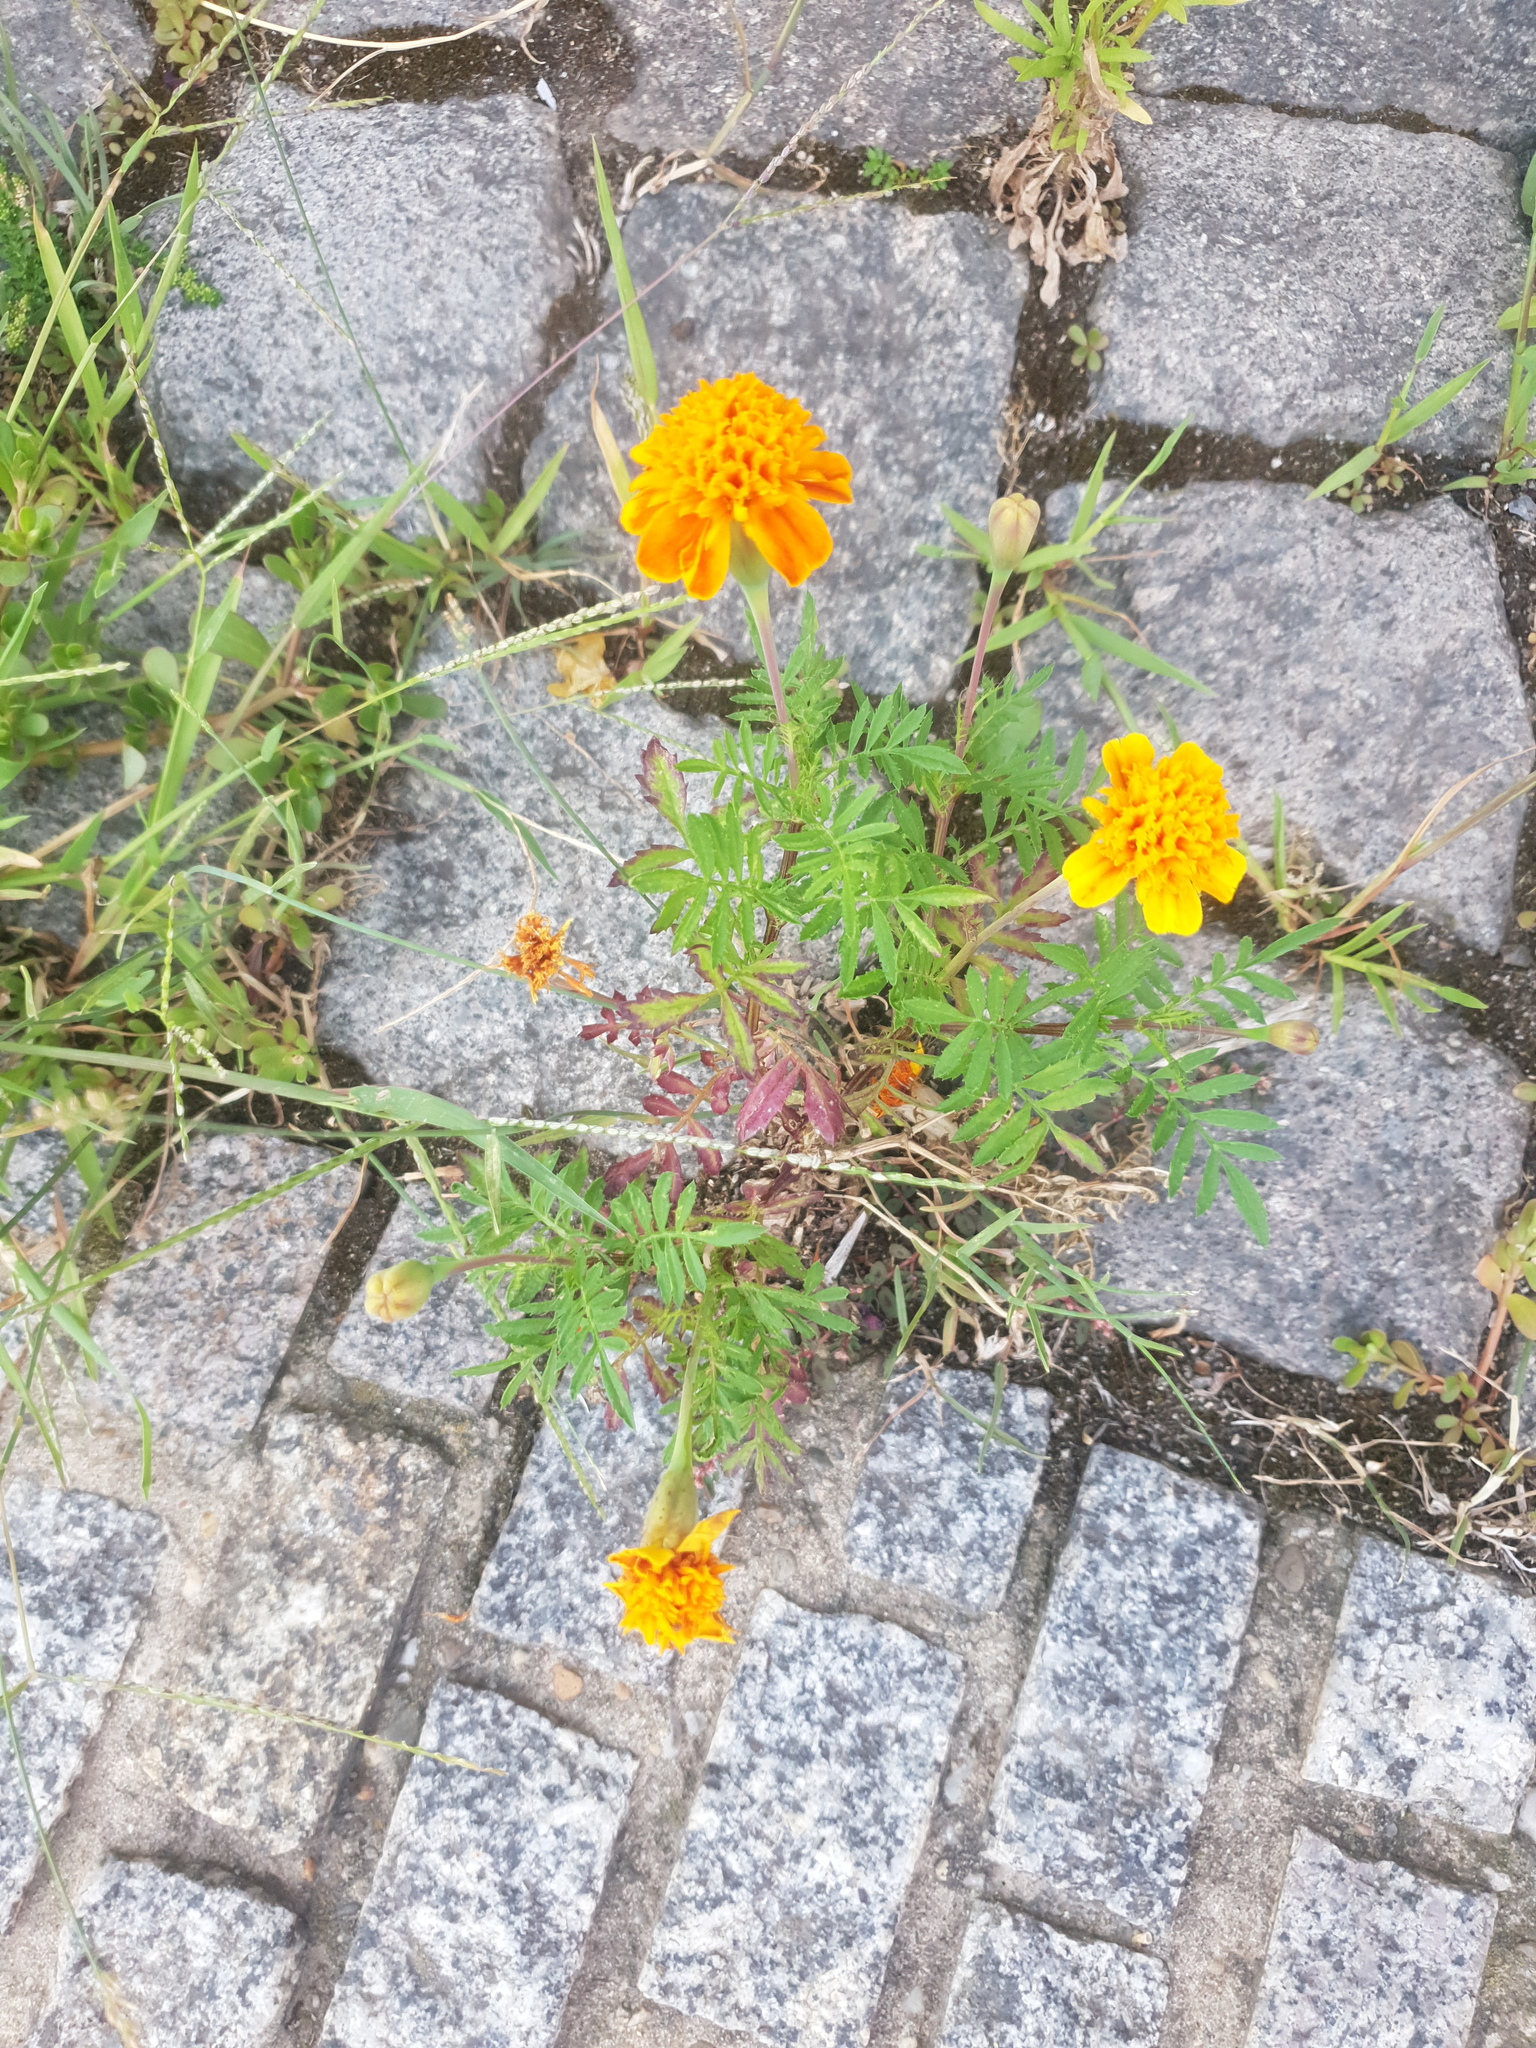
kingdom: Plantae
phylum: Tracheophyta
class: Magnoliopsida
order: Asterales
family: Asteraceae
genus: Tagetes
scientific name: Tagetes erecta
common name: African marigold
